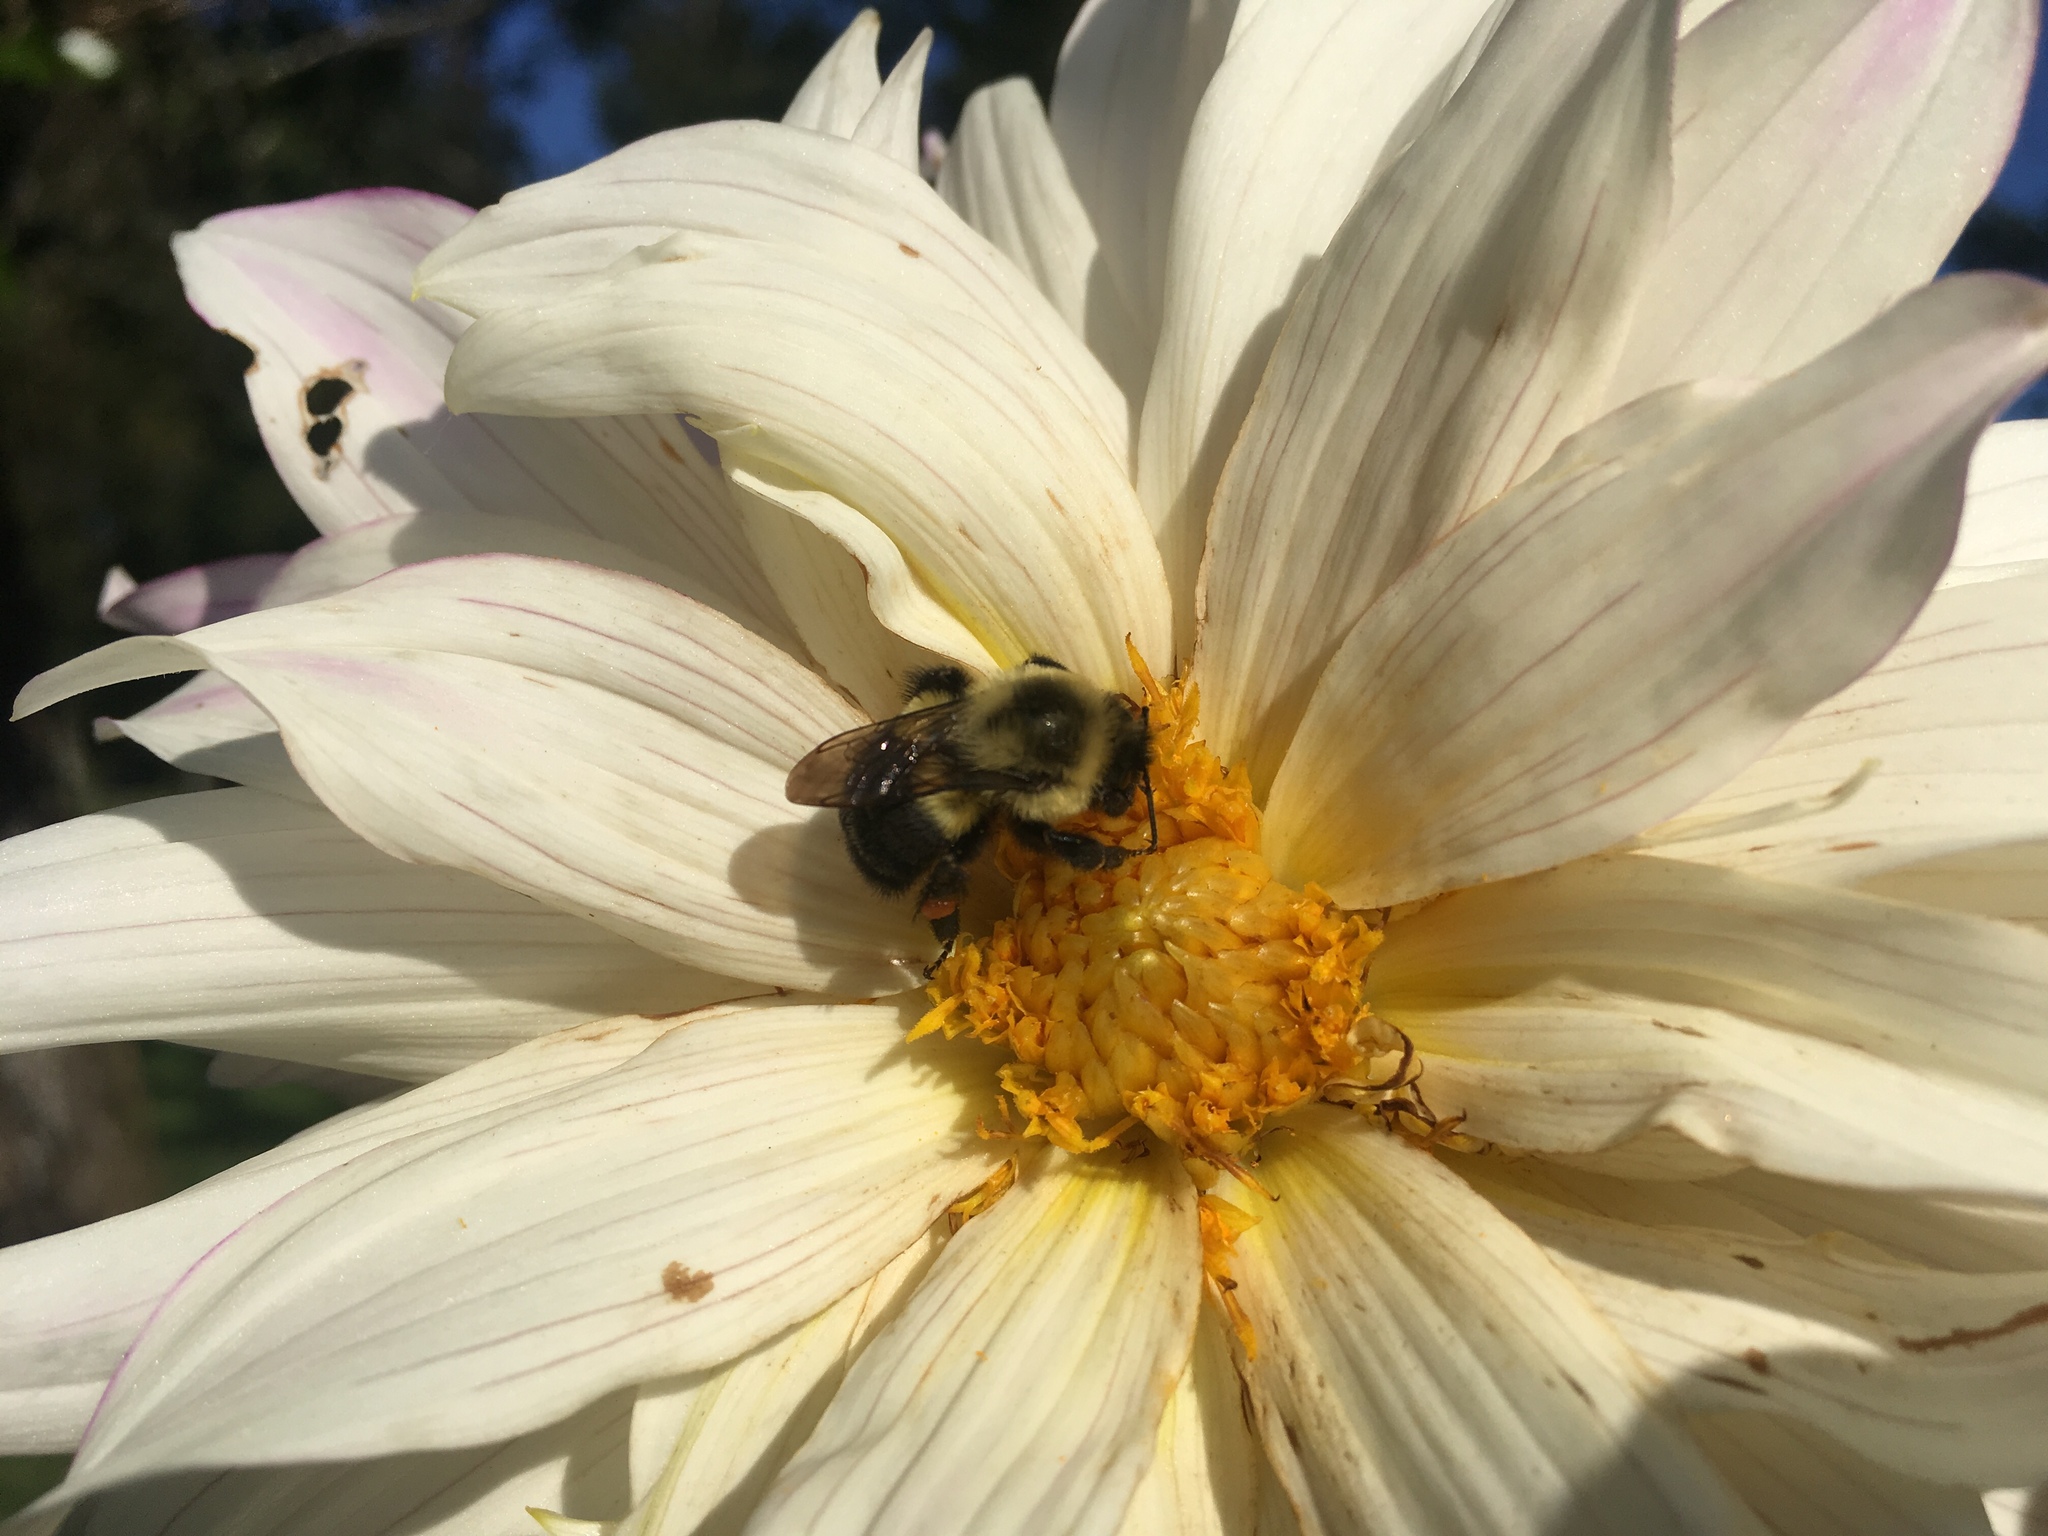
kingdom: Animalia
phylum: Arthropoda
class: Insecta
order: Hymenoptera
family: Apidae
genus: Bombus
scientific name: Bombus impatiens
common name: Common eastern bumble bee
